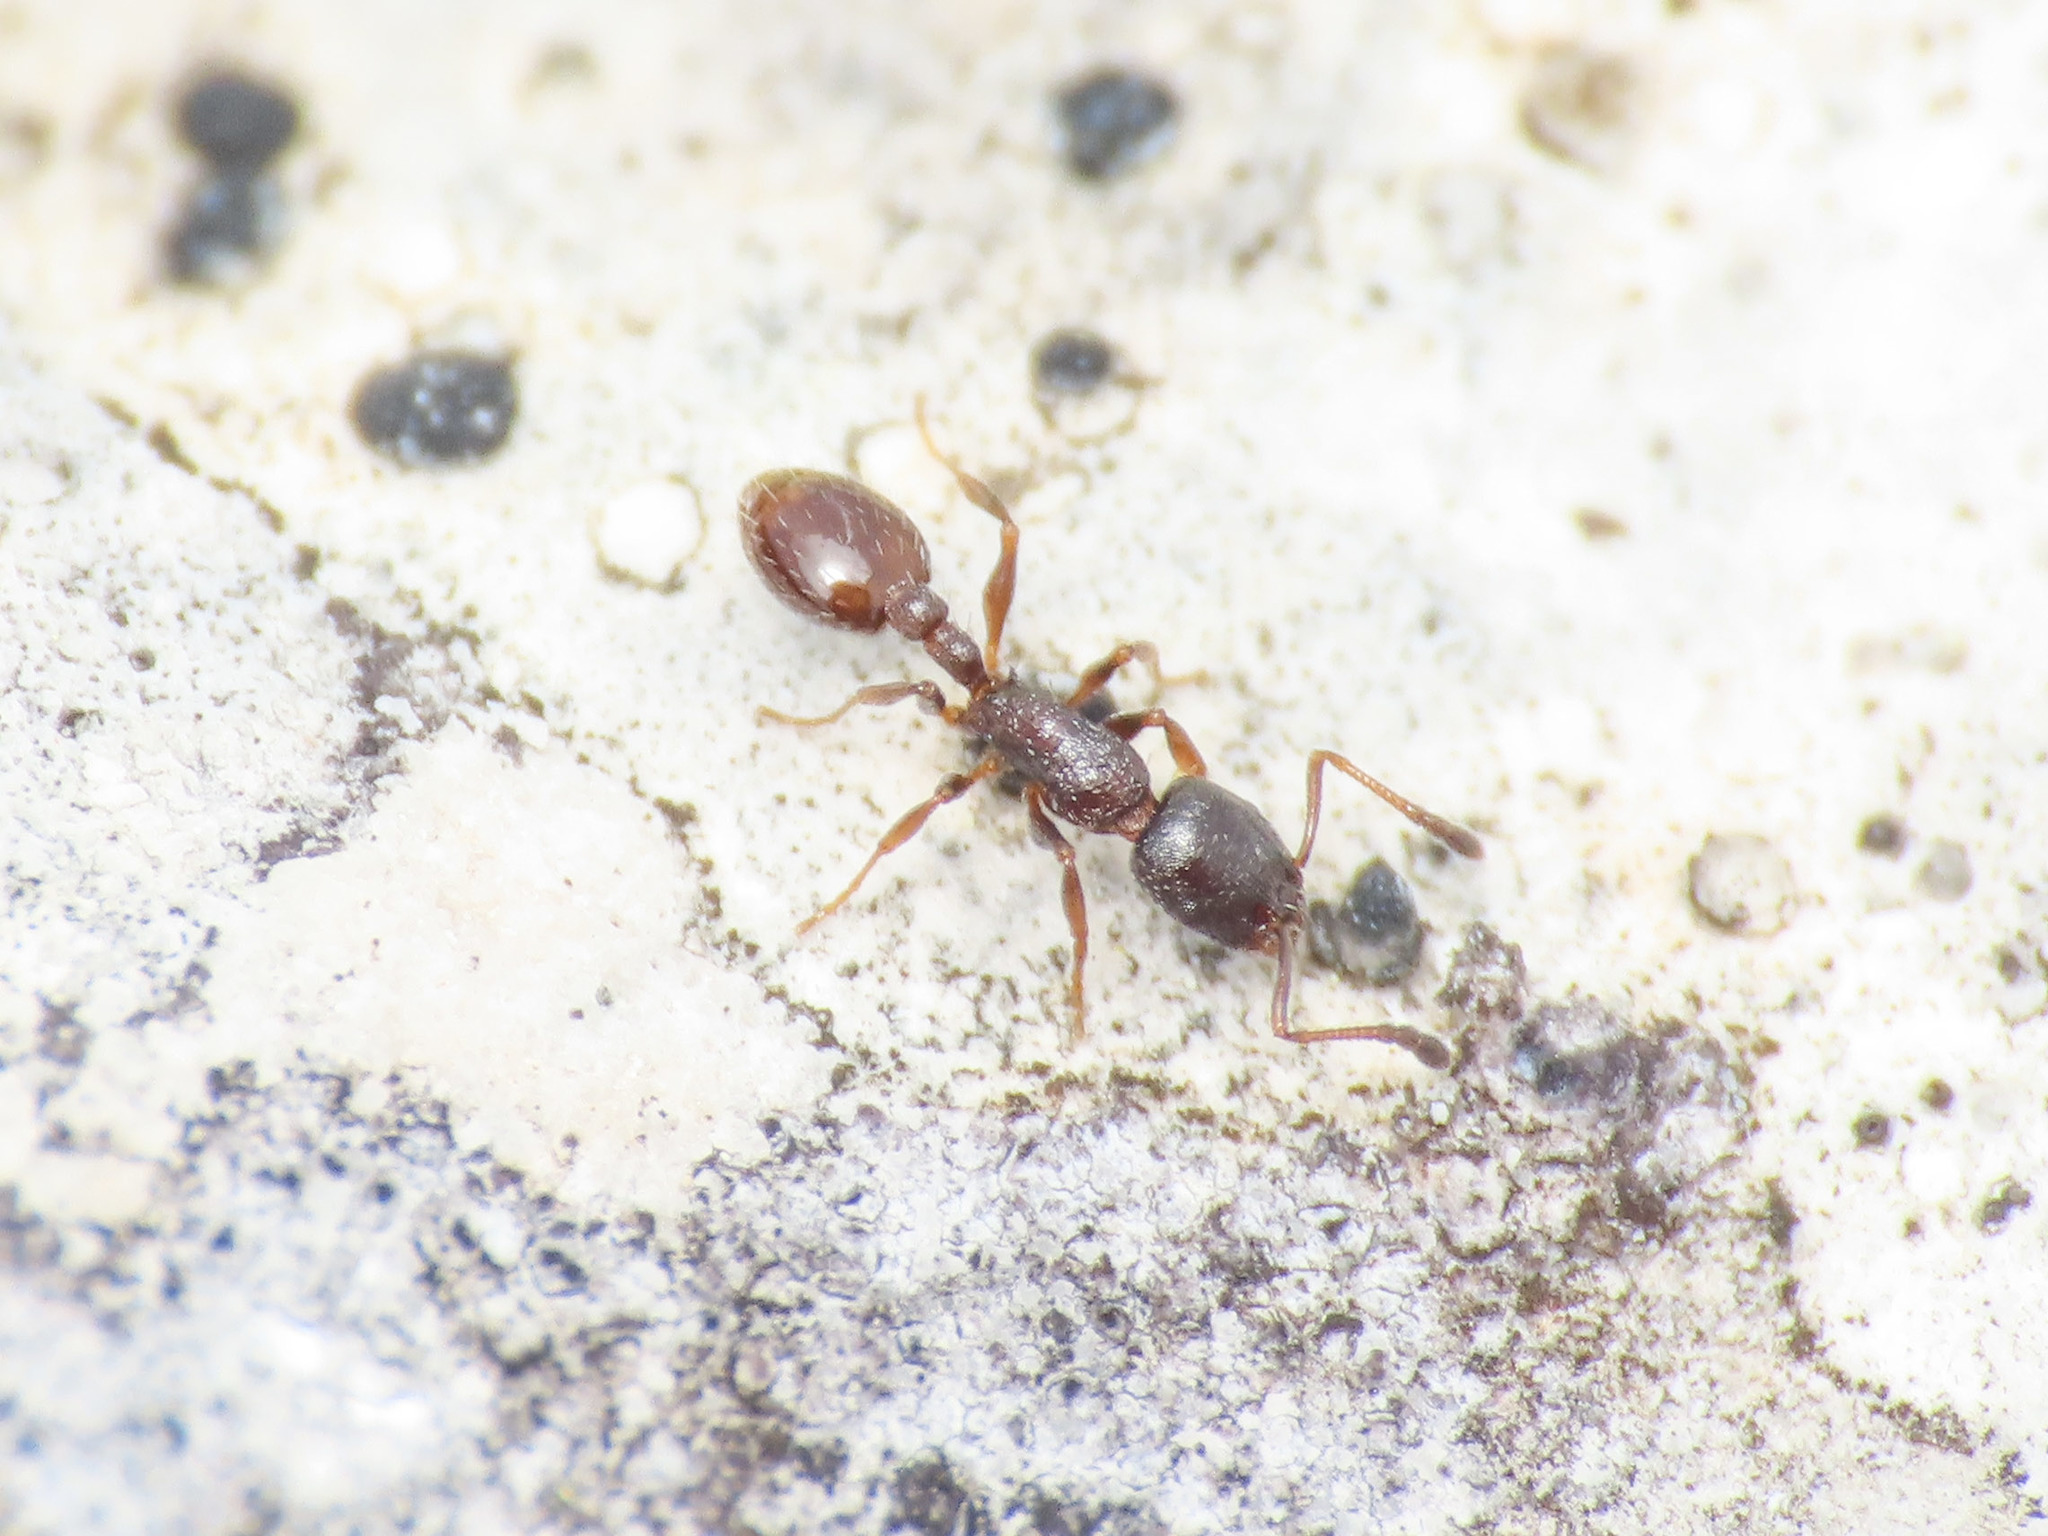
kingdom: Animalia
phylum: Arthropoda
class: Insecta
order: Hymenoptera
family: Formicidae
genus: Temnothorax
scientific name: Temnothorax saxatilis
